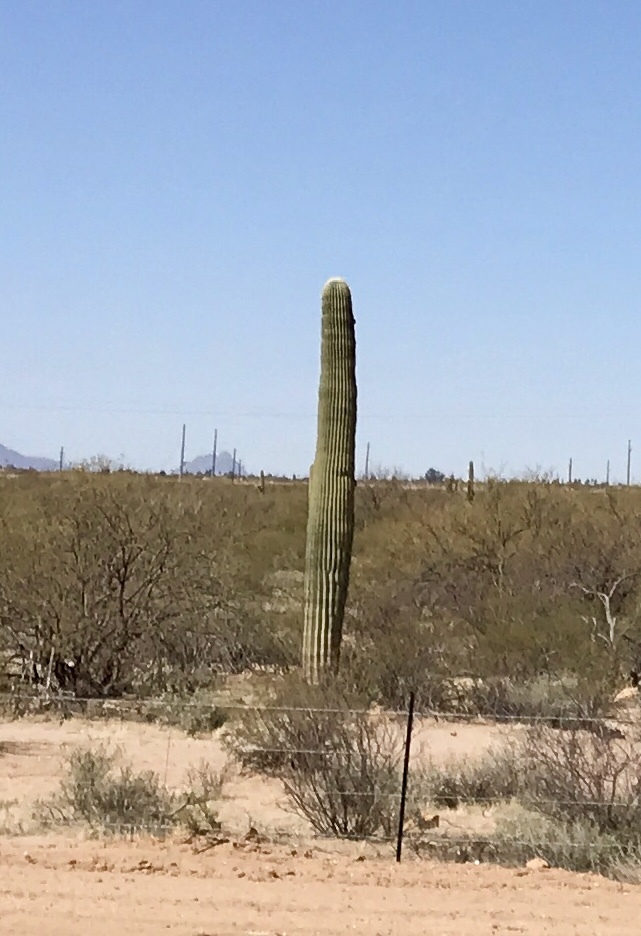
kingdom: Plantae
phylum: Tracheophyta
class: Magnoliopsida
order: Caryophyllales
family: Cactaceae
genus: Carnegiea
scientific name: Carnegiea gigantea
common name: Saguaro
